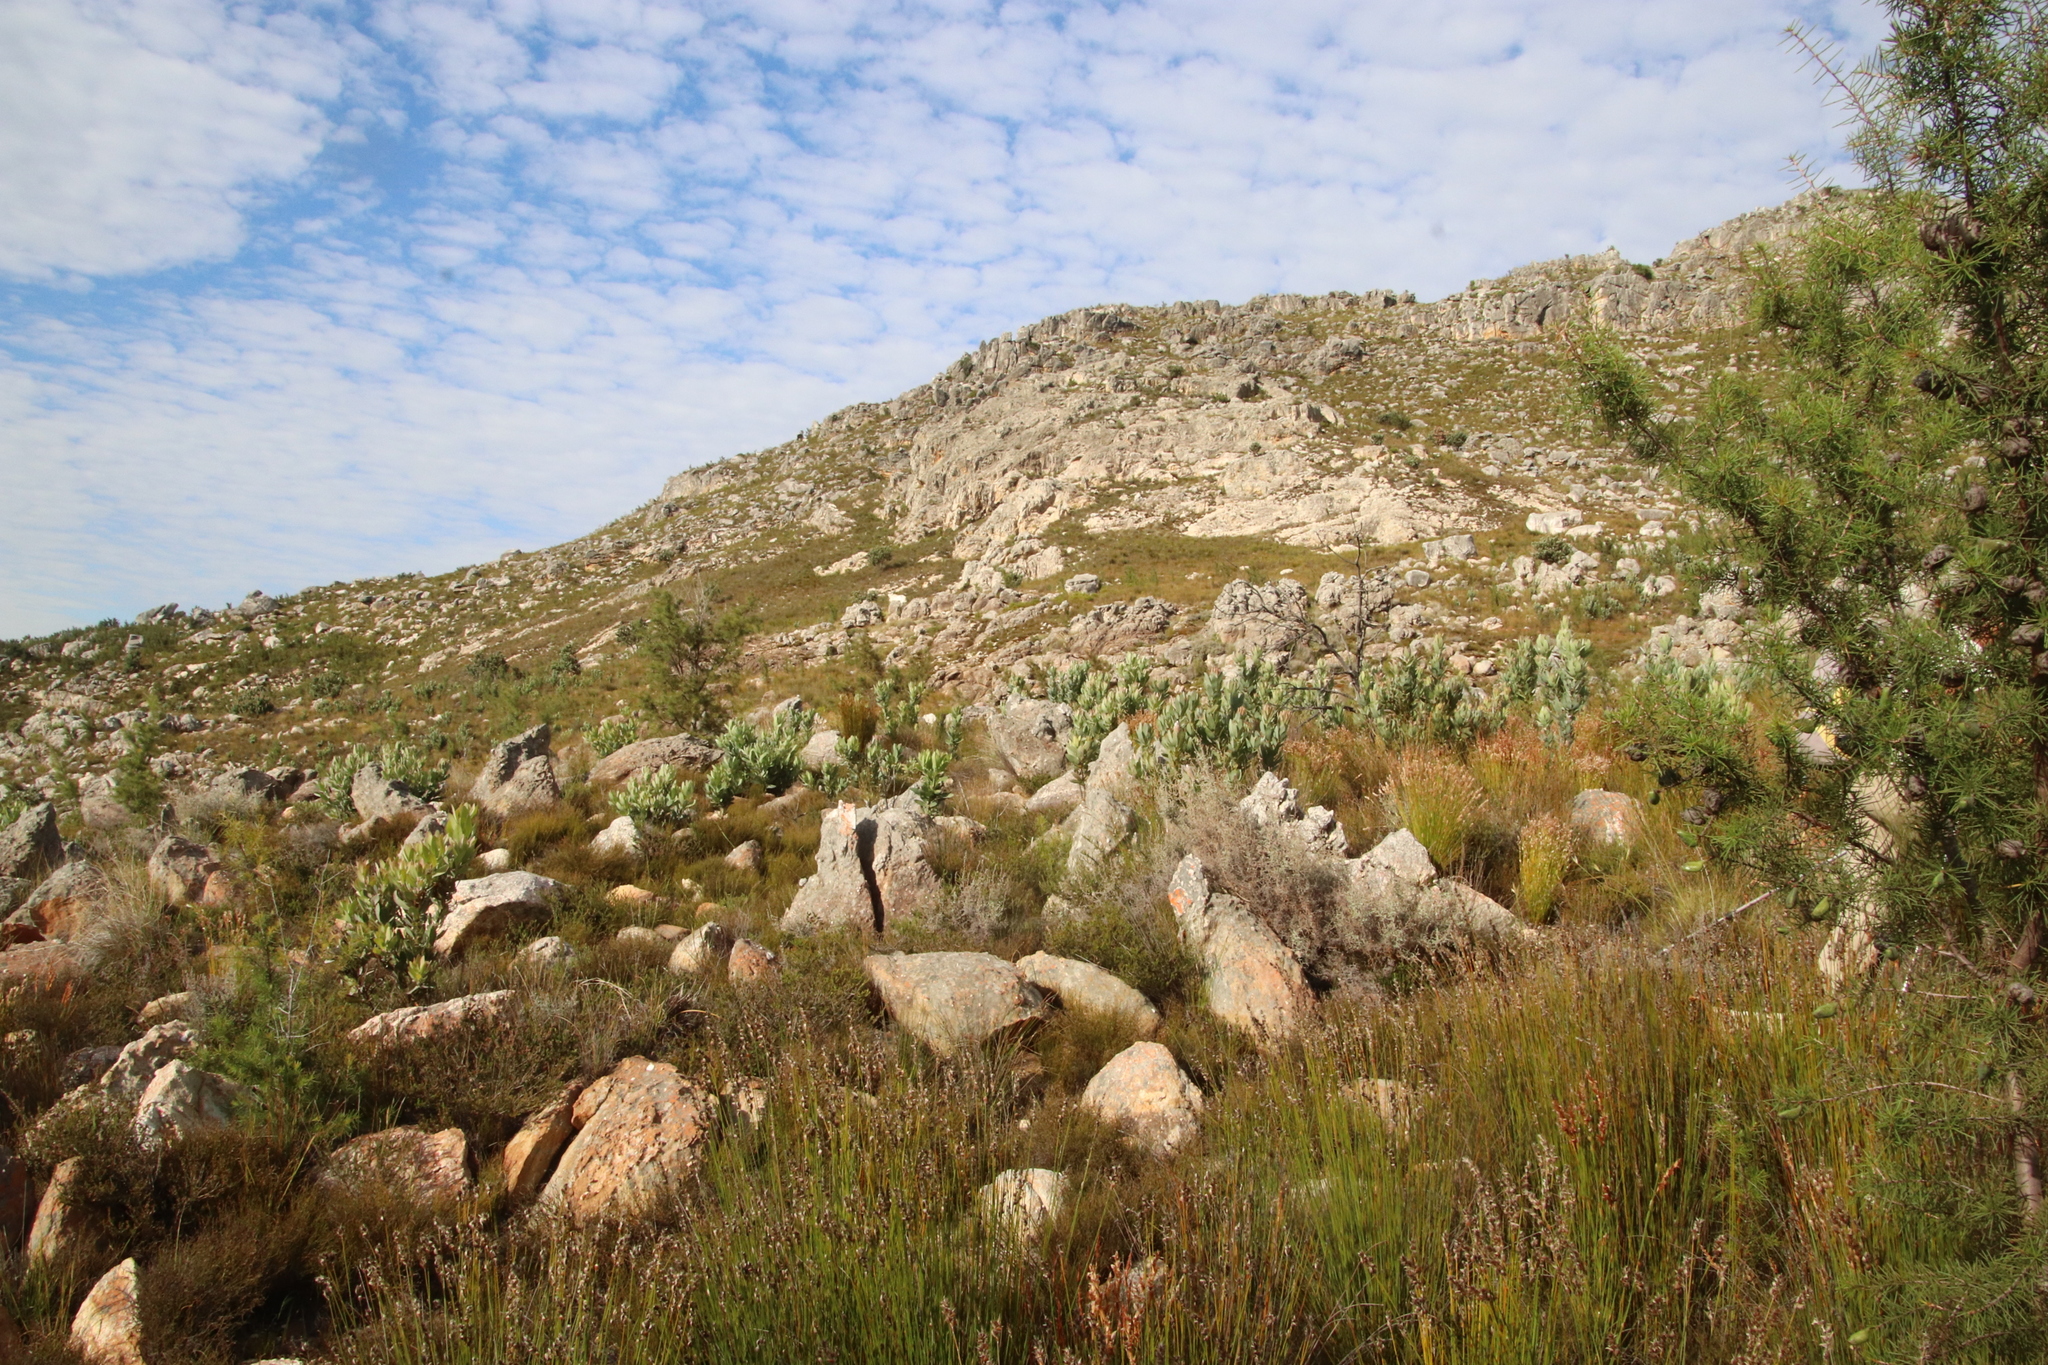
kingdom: Plantae
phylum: Tracheophyta
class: Magnoliopsida
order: Proteales
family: Proteaceae
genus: Protea
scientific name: Protea laurifolia
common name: Grey-leaf sugarbsh
